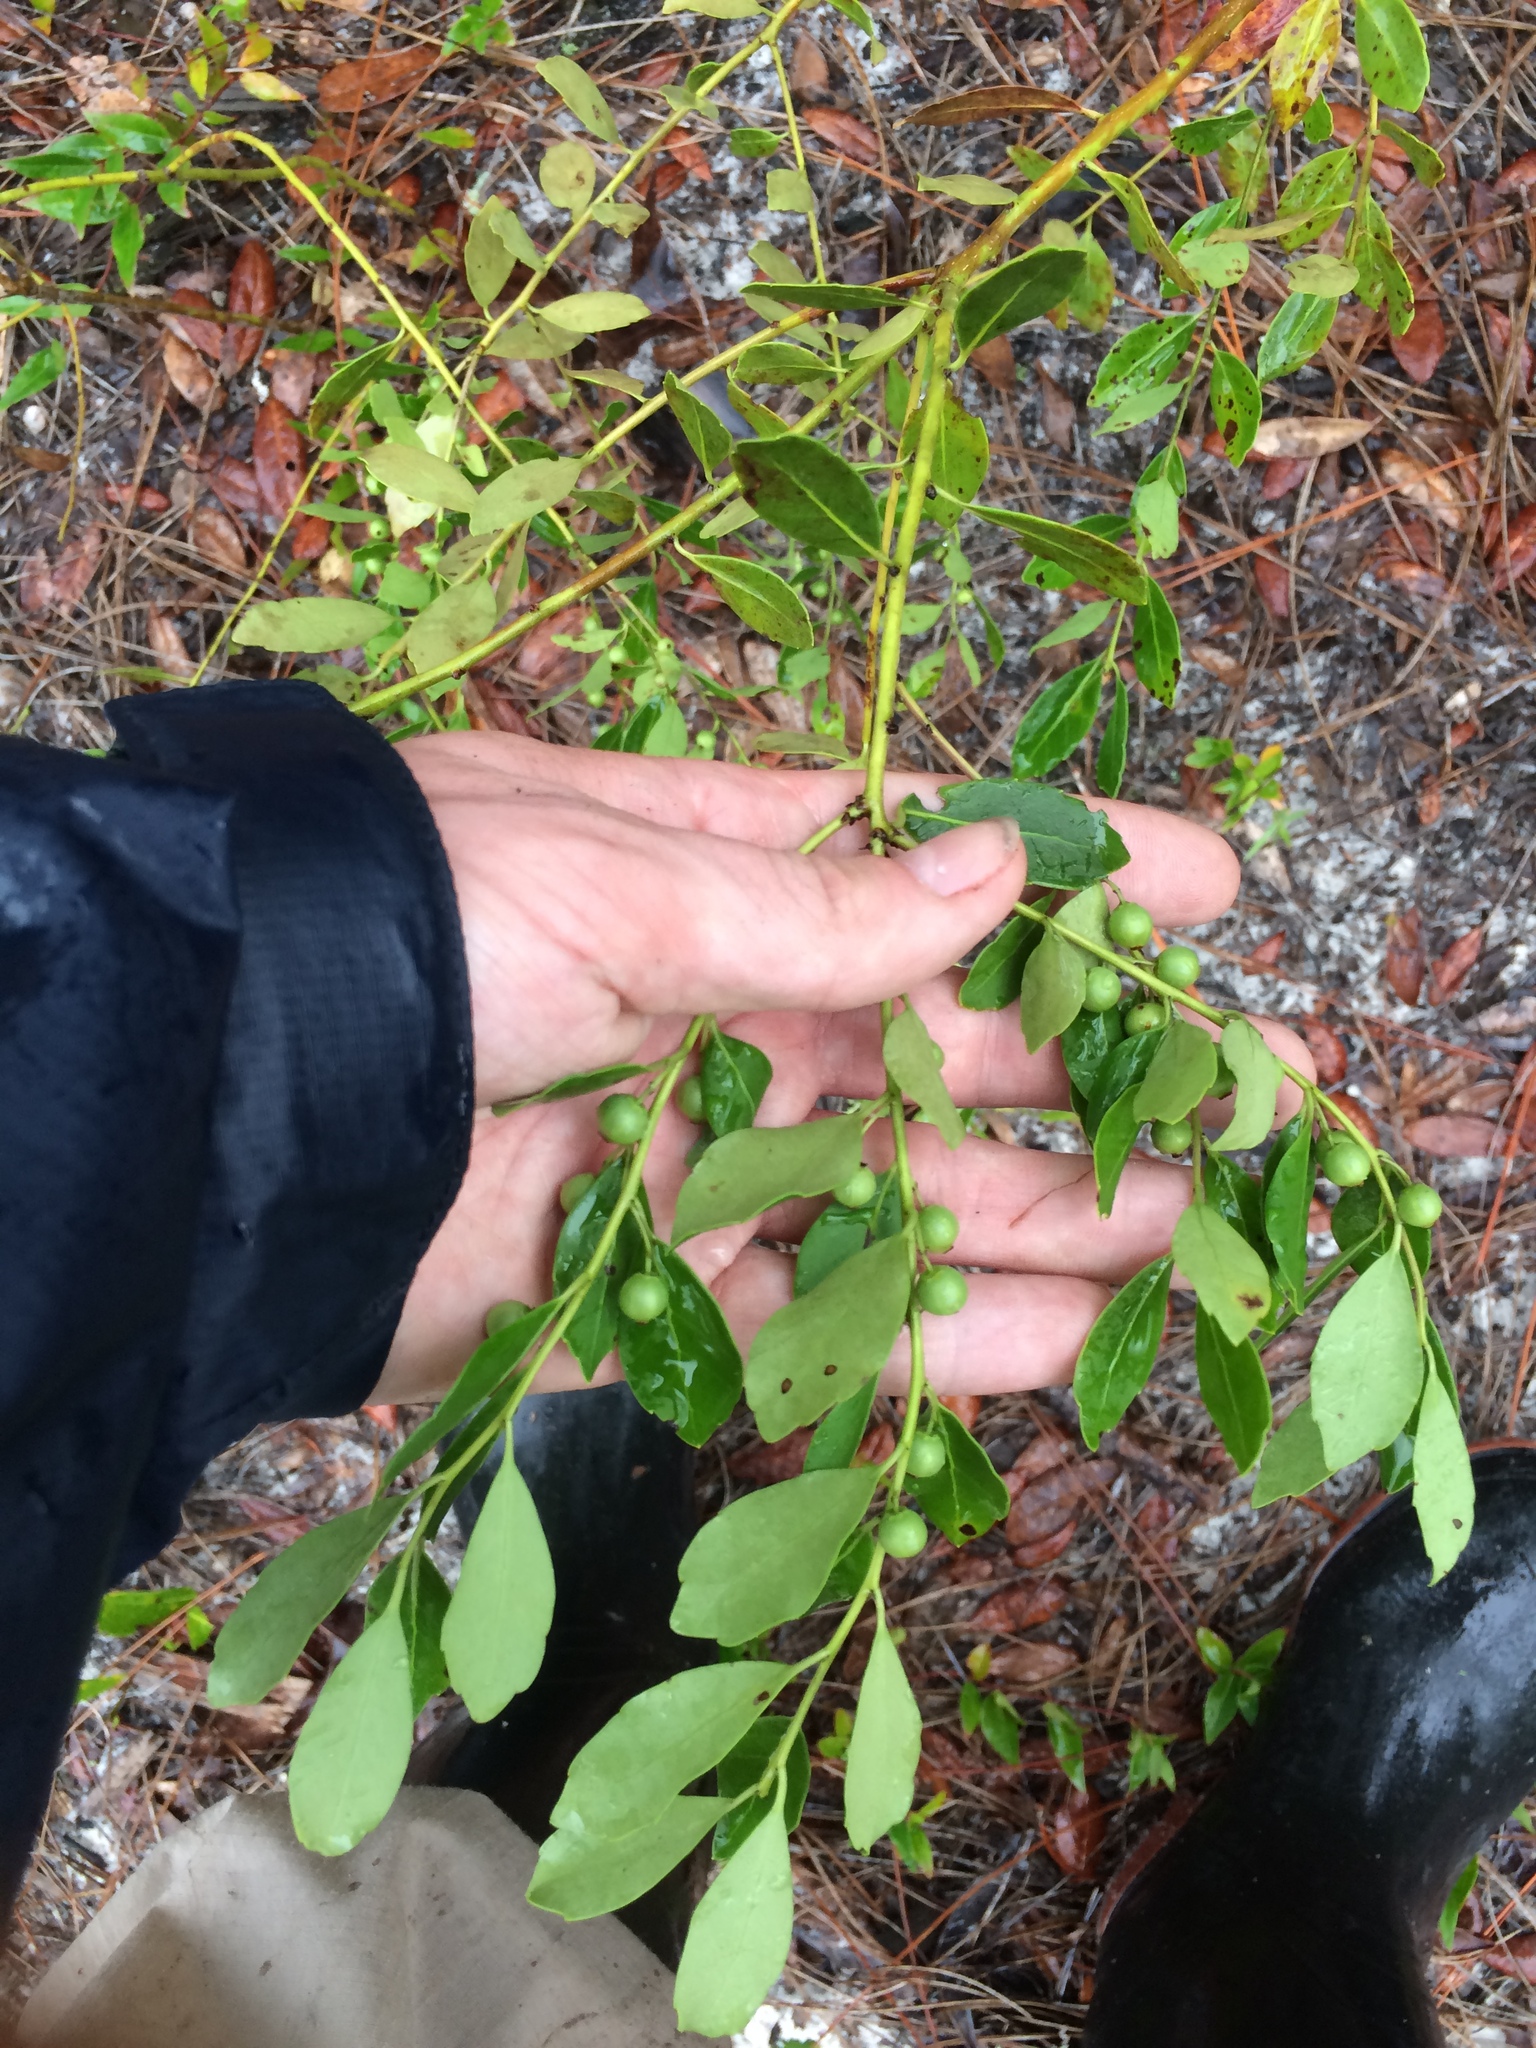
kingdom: Plantae
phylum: Tracheophyta
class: Magnoliopsida
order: Aquifoliales
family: Aquifoliaceae
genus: Ilex
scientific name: Ilex glabra
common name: Bitter gallberry
